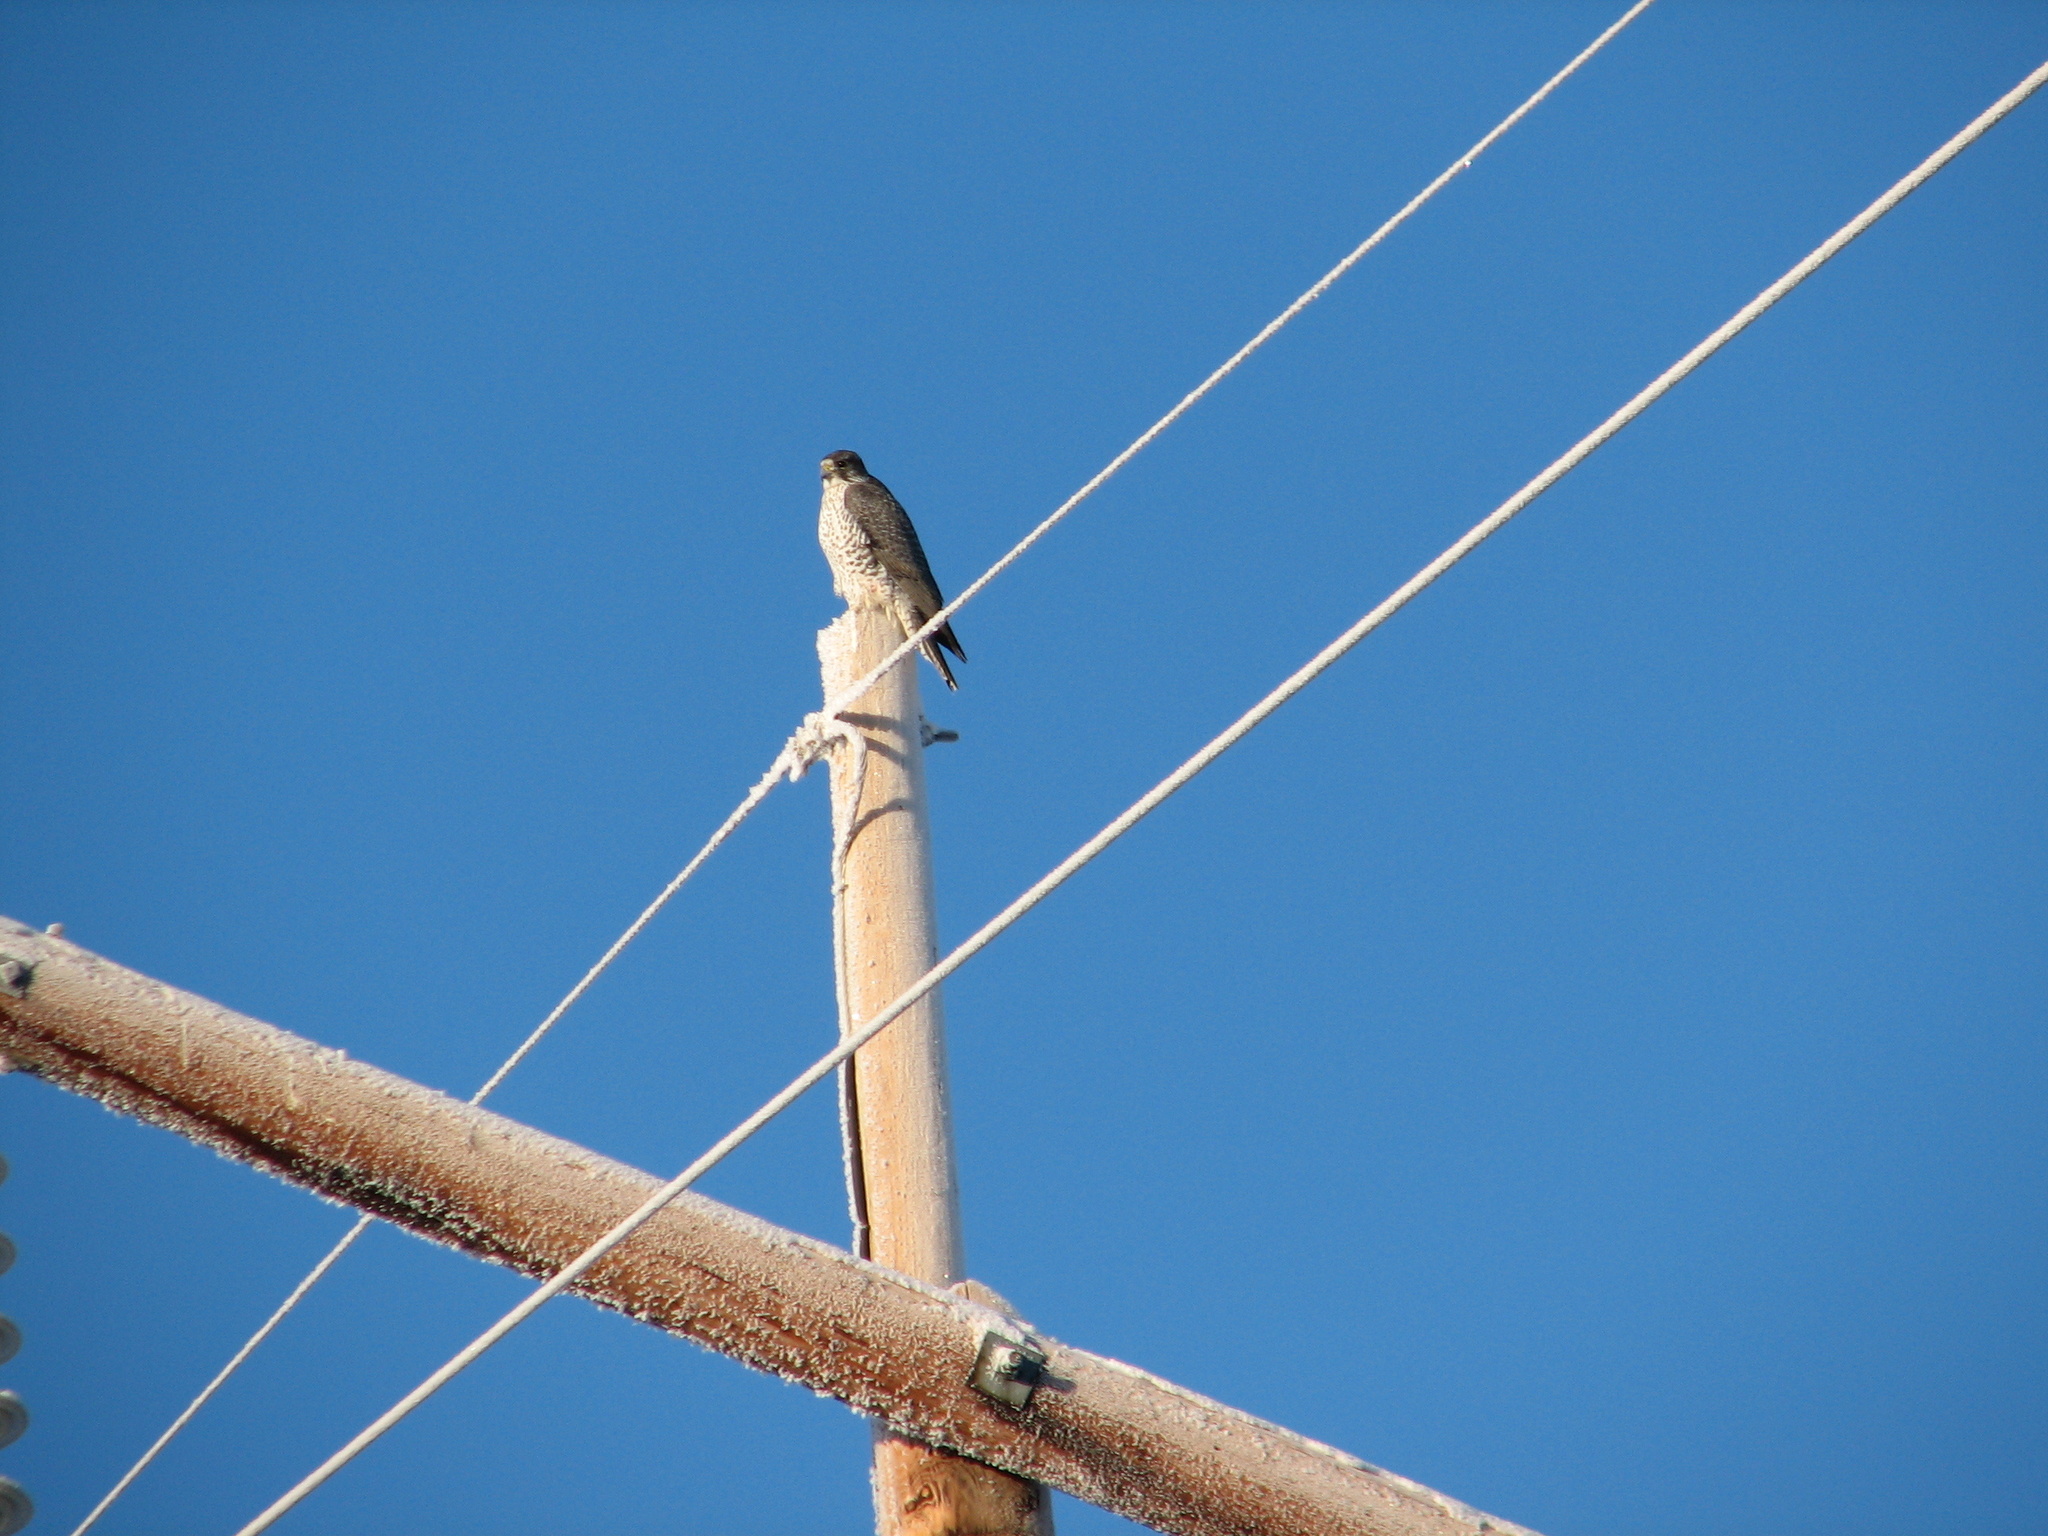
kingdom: Animalia
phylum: Chordata
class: Aves
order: Falconiformes
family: Falconidae
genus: Falco
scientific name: Falco peregrinus
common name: Peregrine falcon
